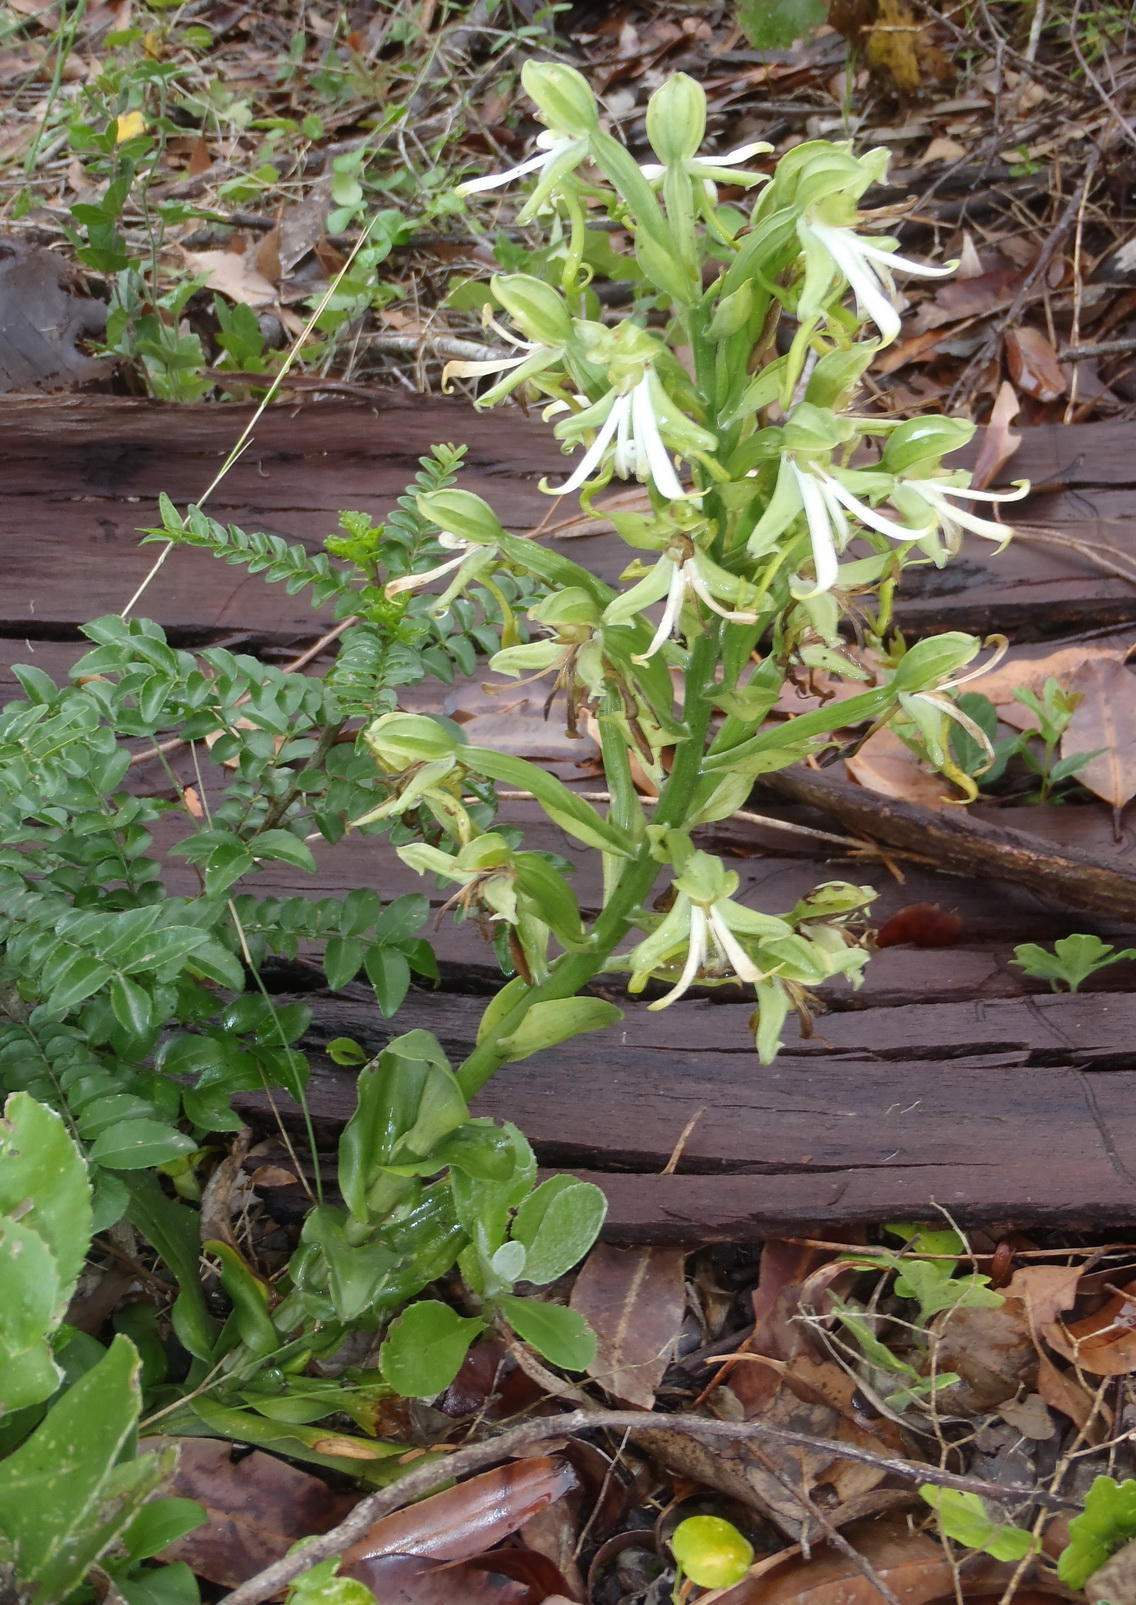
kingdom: Plantae
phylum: Tracheophyta
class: Liliopsida
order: Asparagales
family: Orchidaceae
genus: Bonatea
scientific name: Bonatea speciosa
